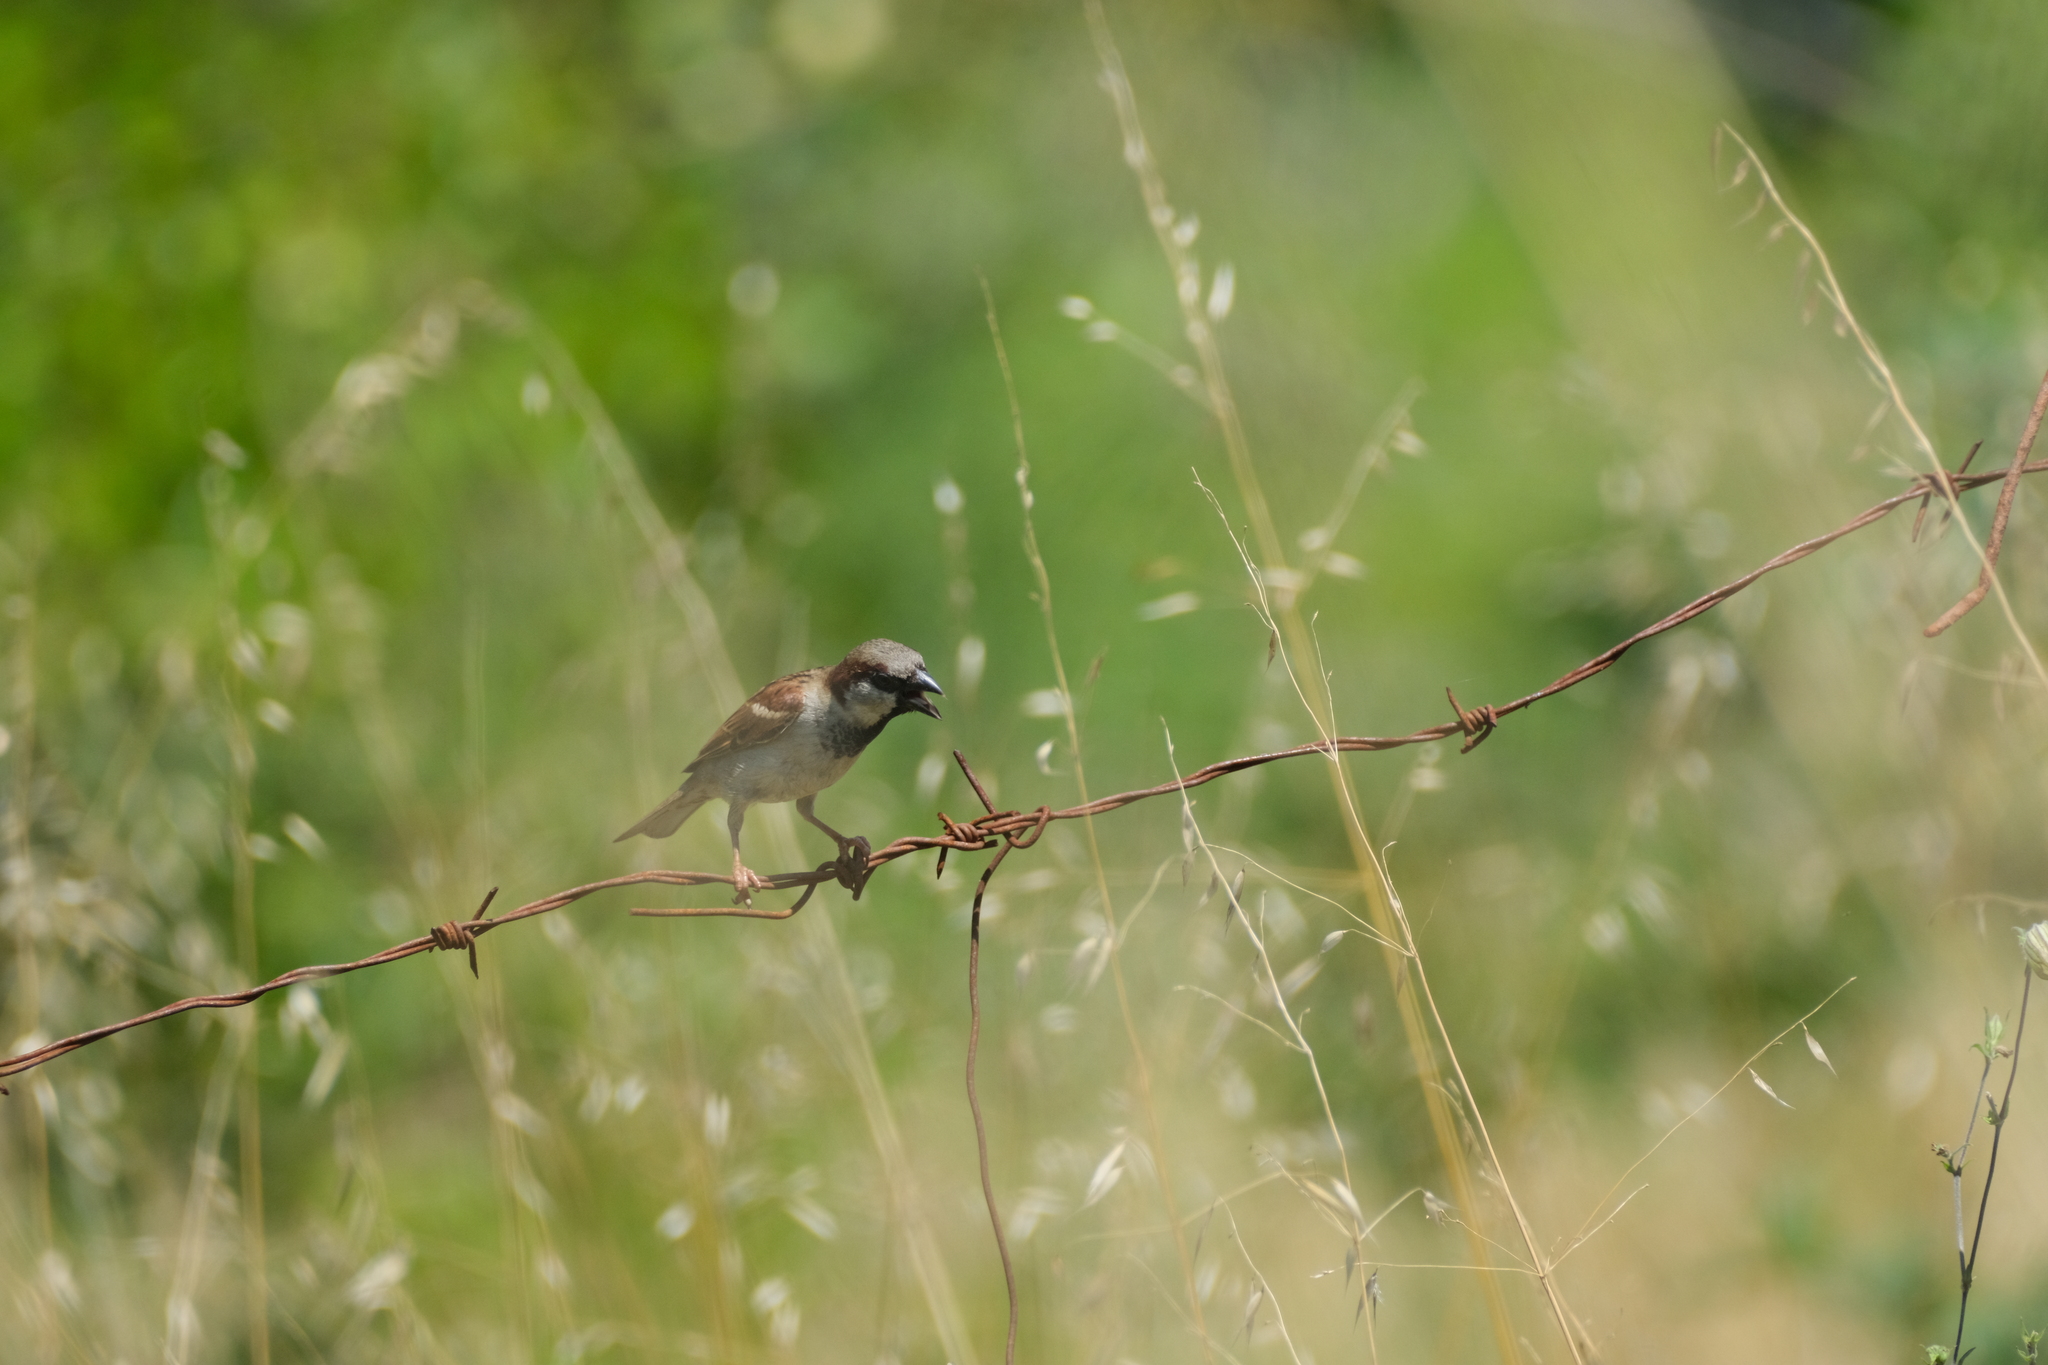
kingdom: Animalia
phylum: Chordata
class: Aves
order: Passeriformes
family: Passeridae
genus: Passer
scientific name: Passer domesticus
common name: House sparrow
